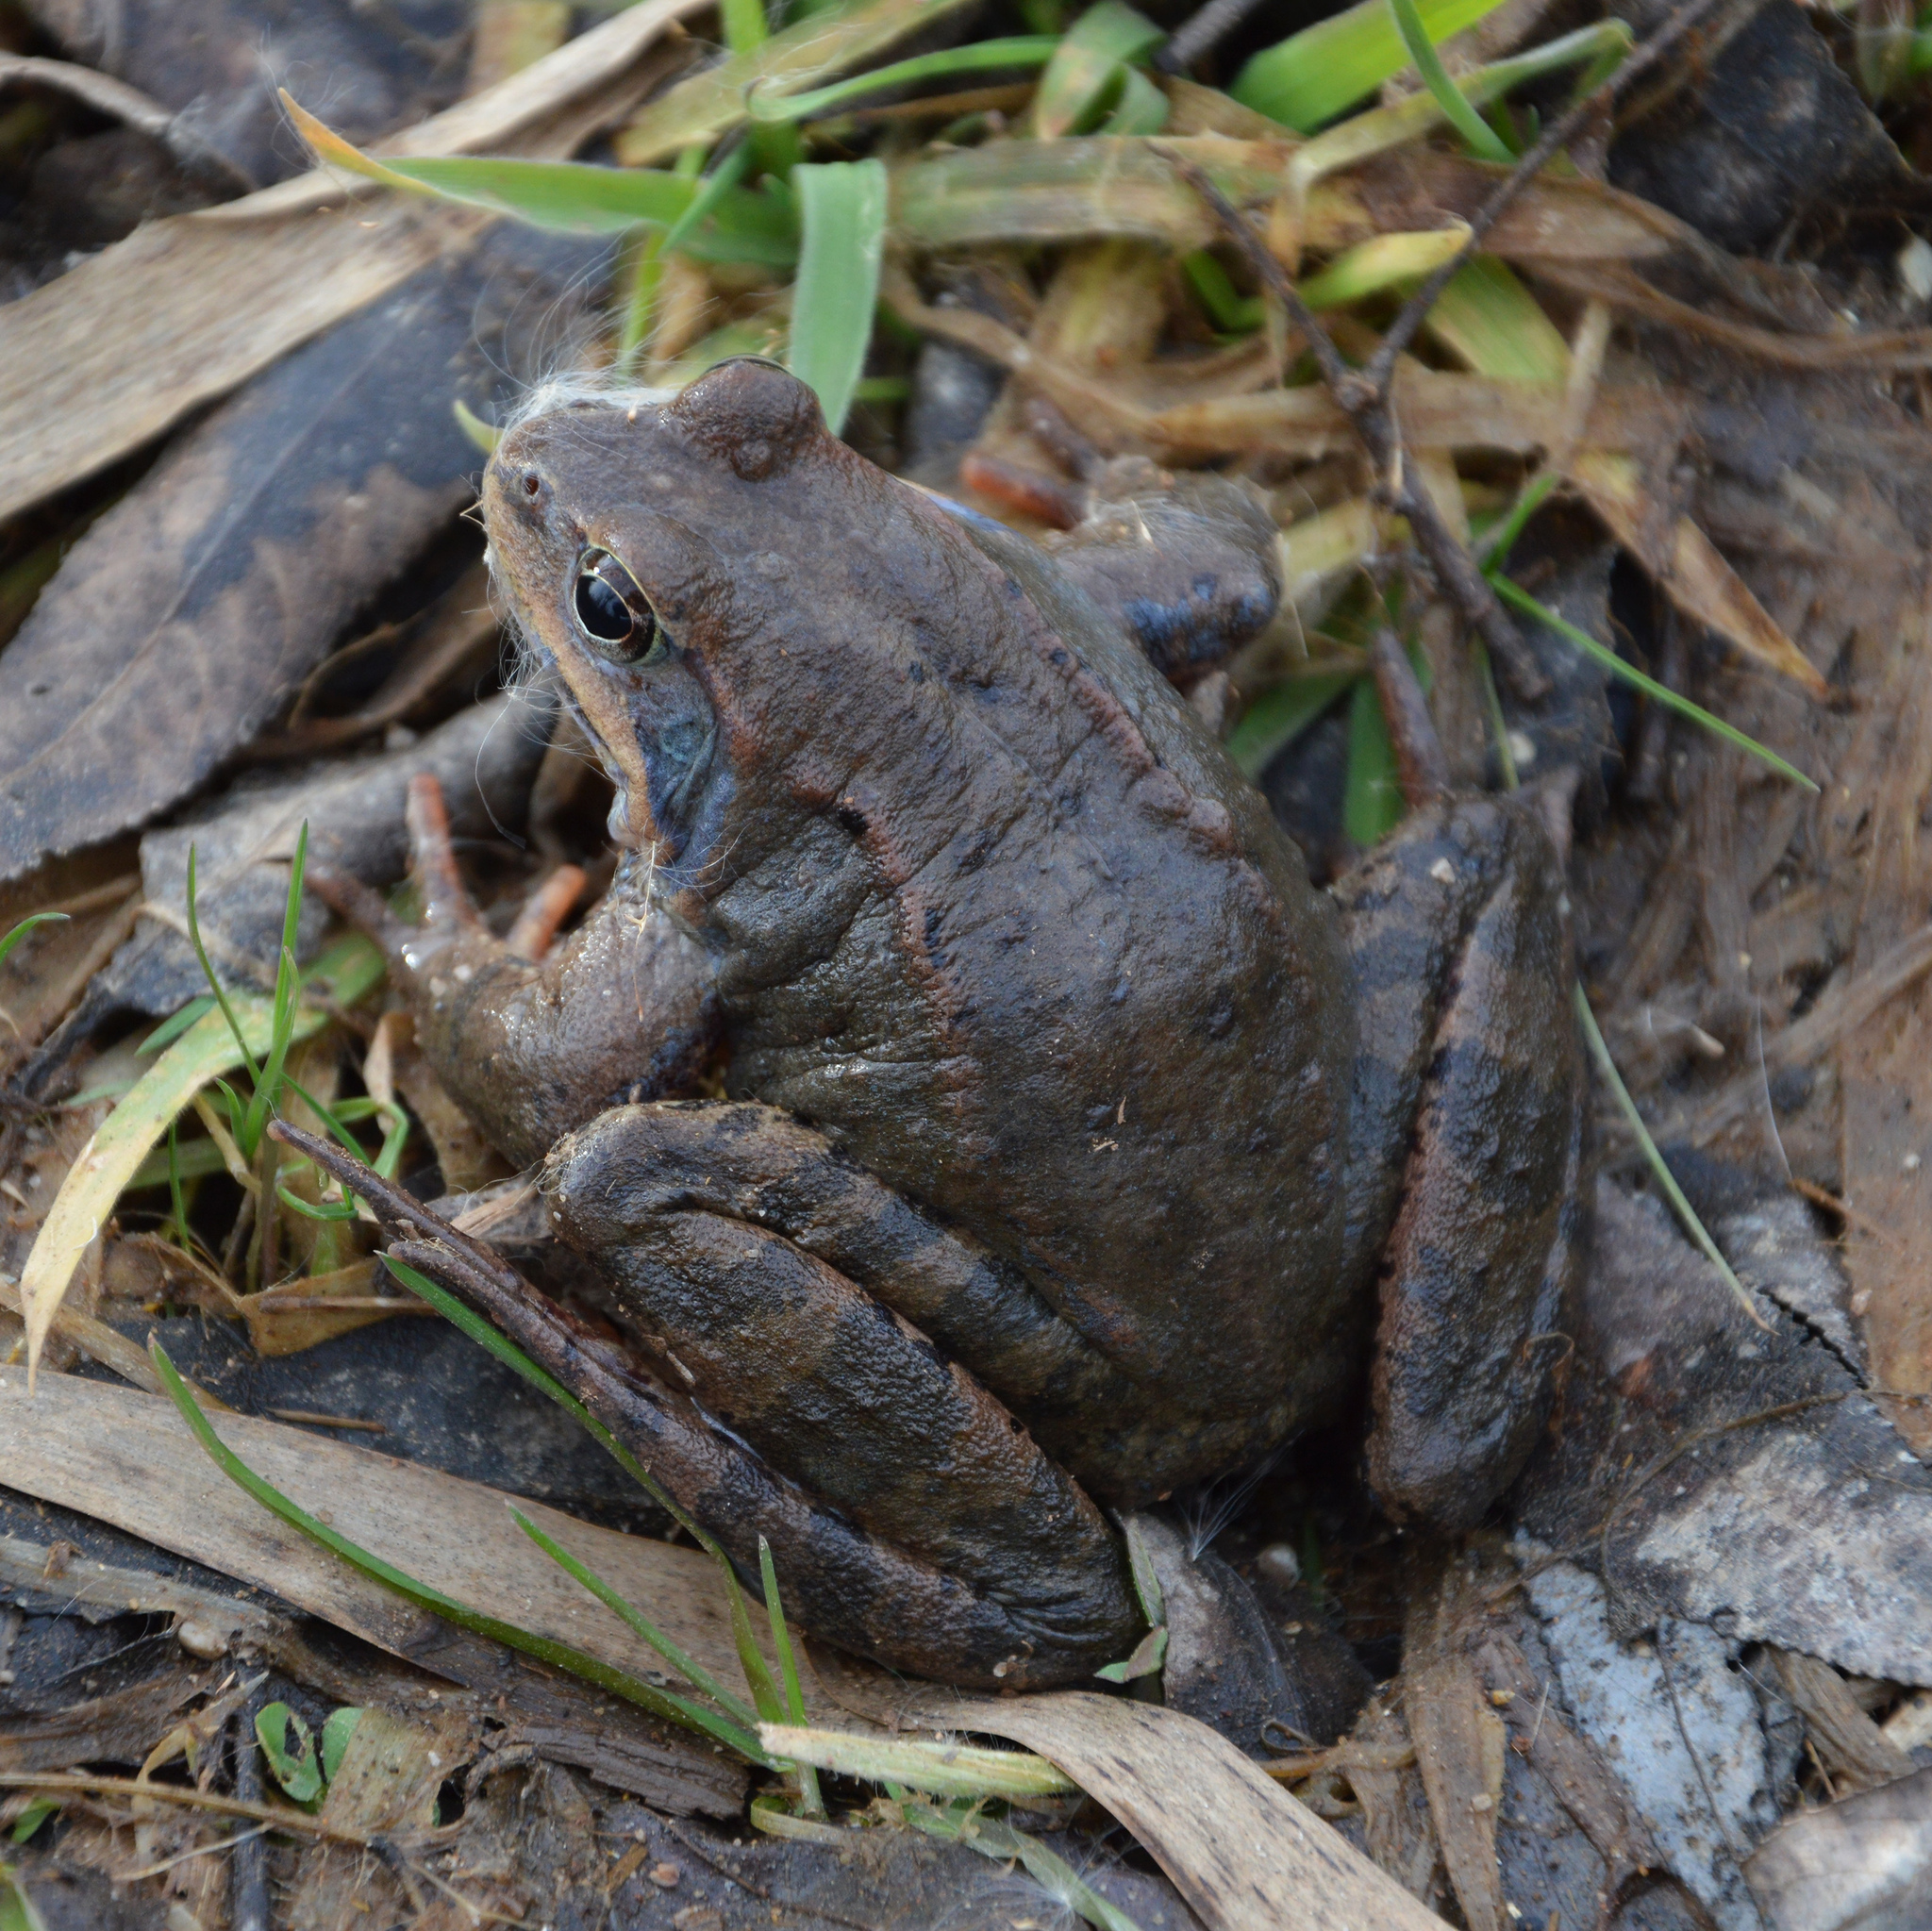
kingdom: Animalia
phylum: Chordata
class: Amphibia
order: Anura
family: Ranidae
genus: Rana
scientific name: Rana temporaria
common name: Common frog
